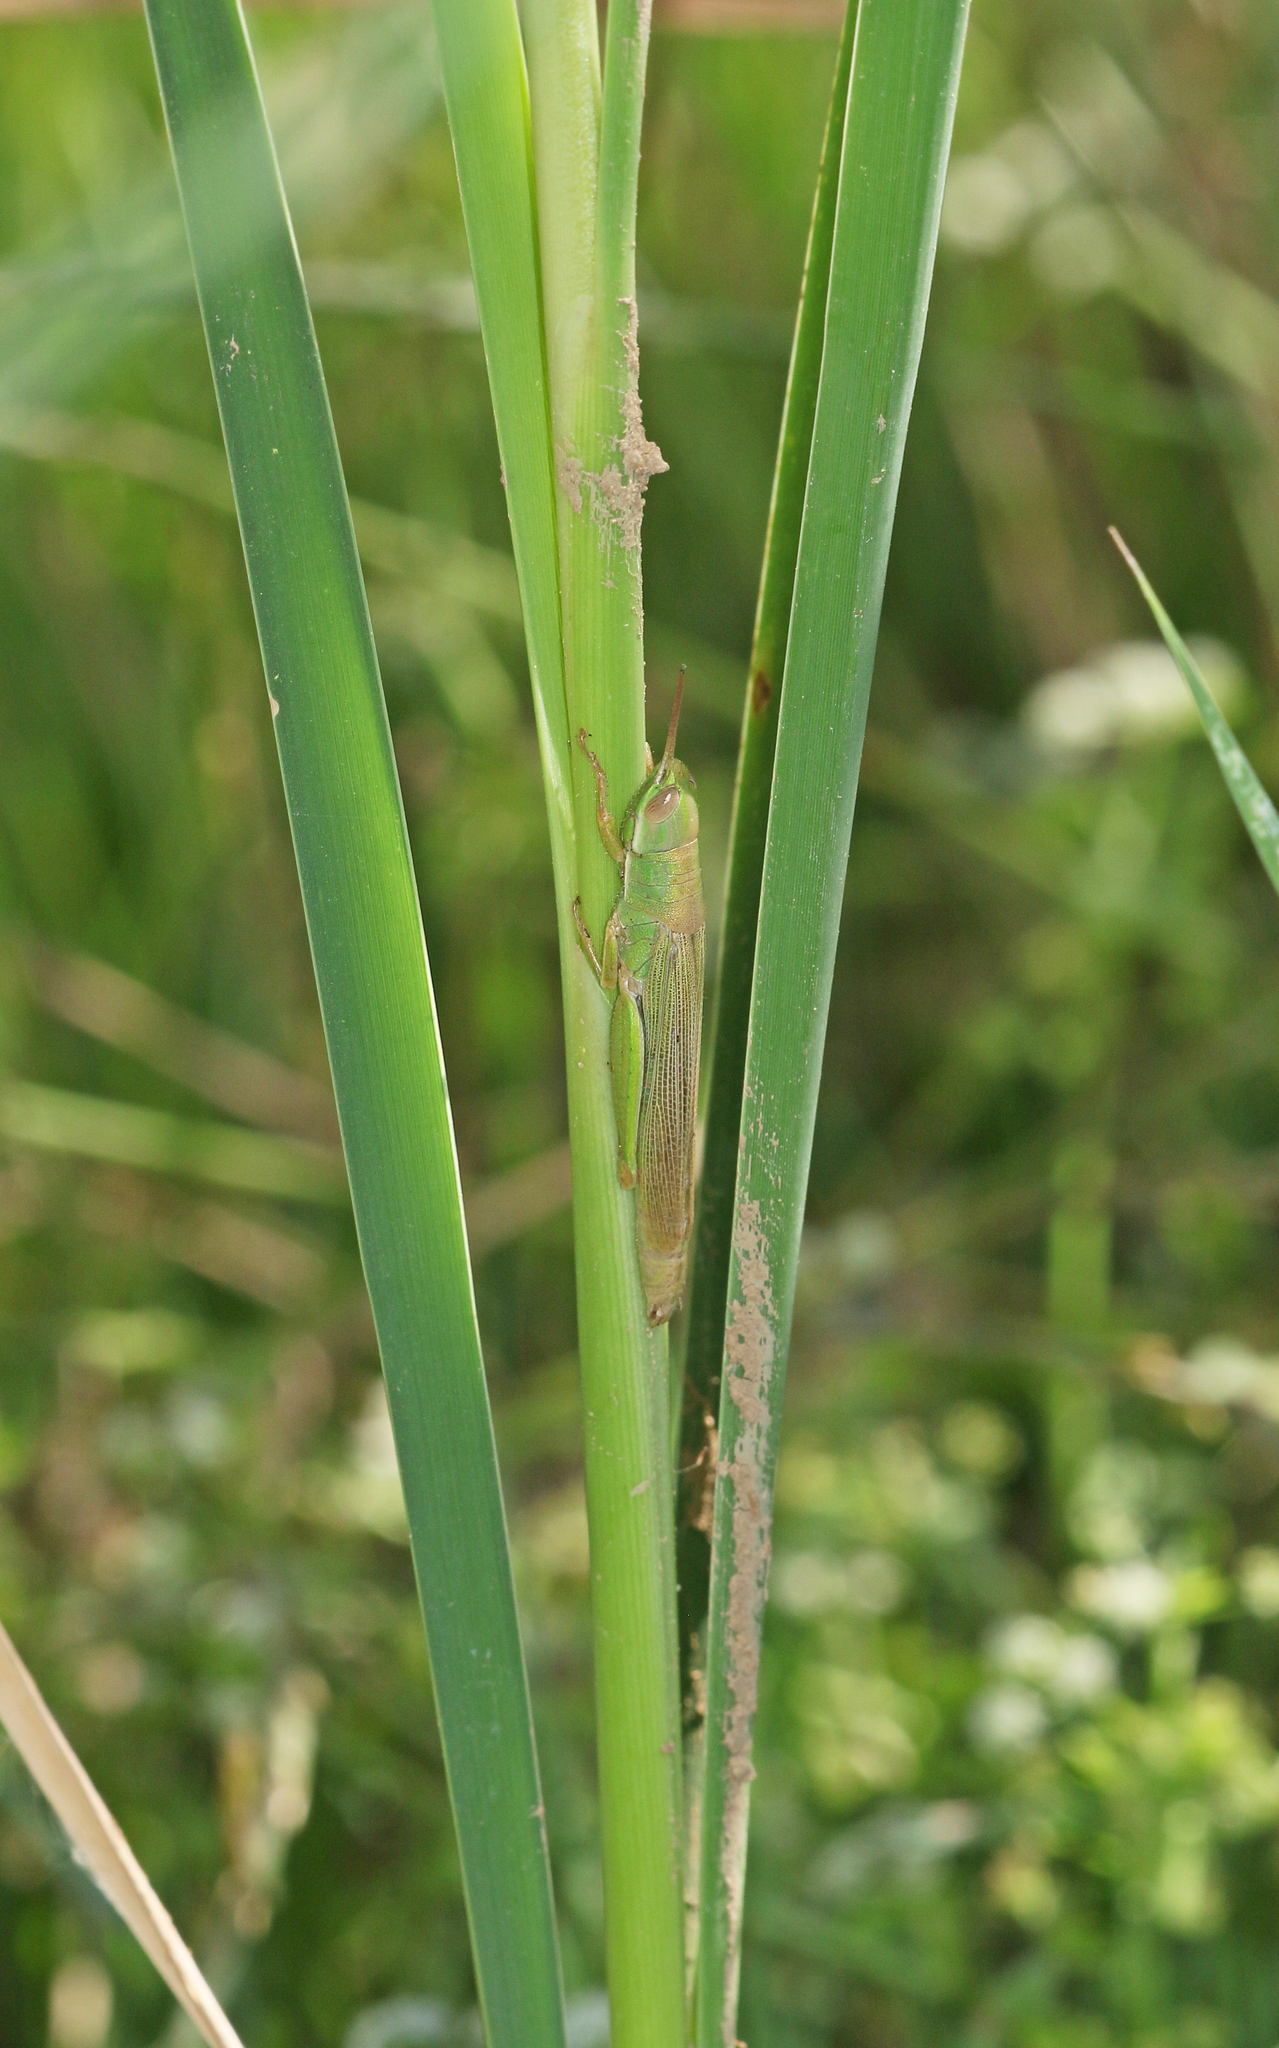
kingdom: Animalia
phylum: Arthropoda
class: Insecta
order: Orthoptera
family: Acrididae
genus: Tropidopola
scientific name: Tropidopola cylindrica
